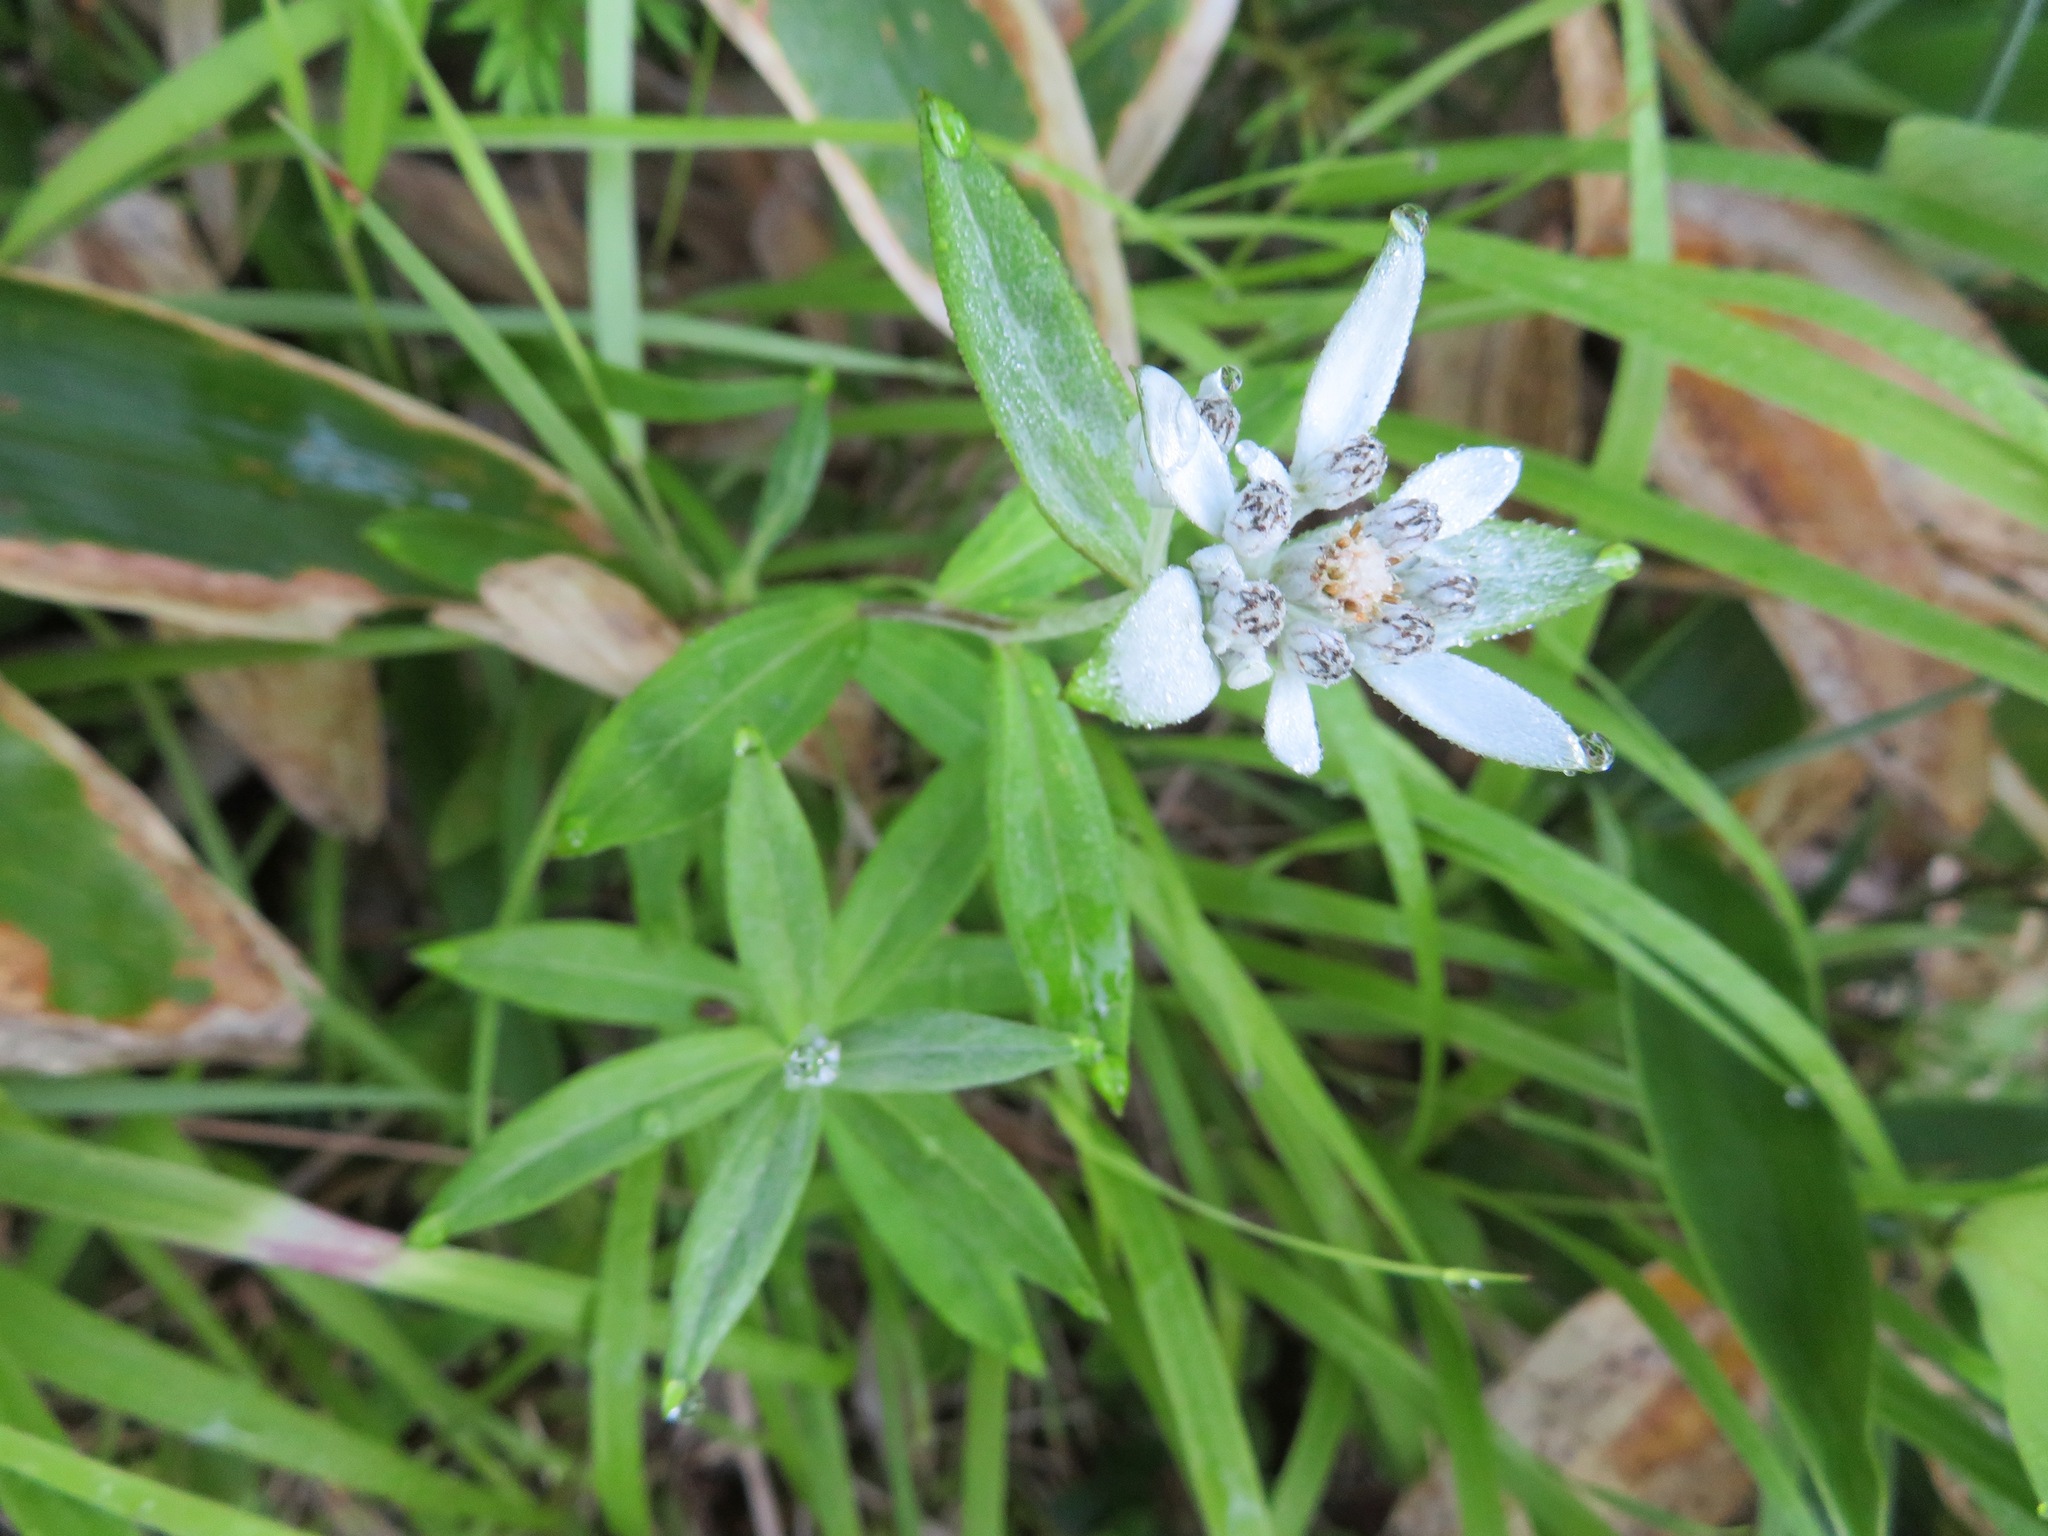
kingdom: Plantae
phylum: Tracheophyta
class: Magnoliopsida
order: Asterales
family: Asteraceae
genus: Leontopodium
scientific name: Leontopodium japonicum
